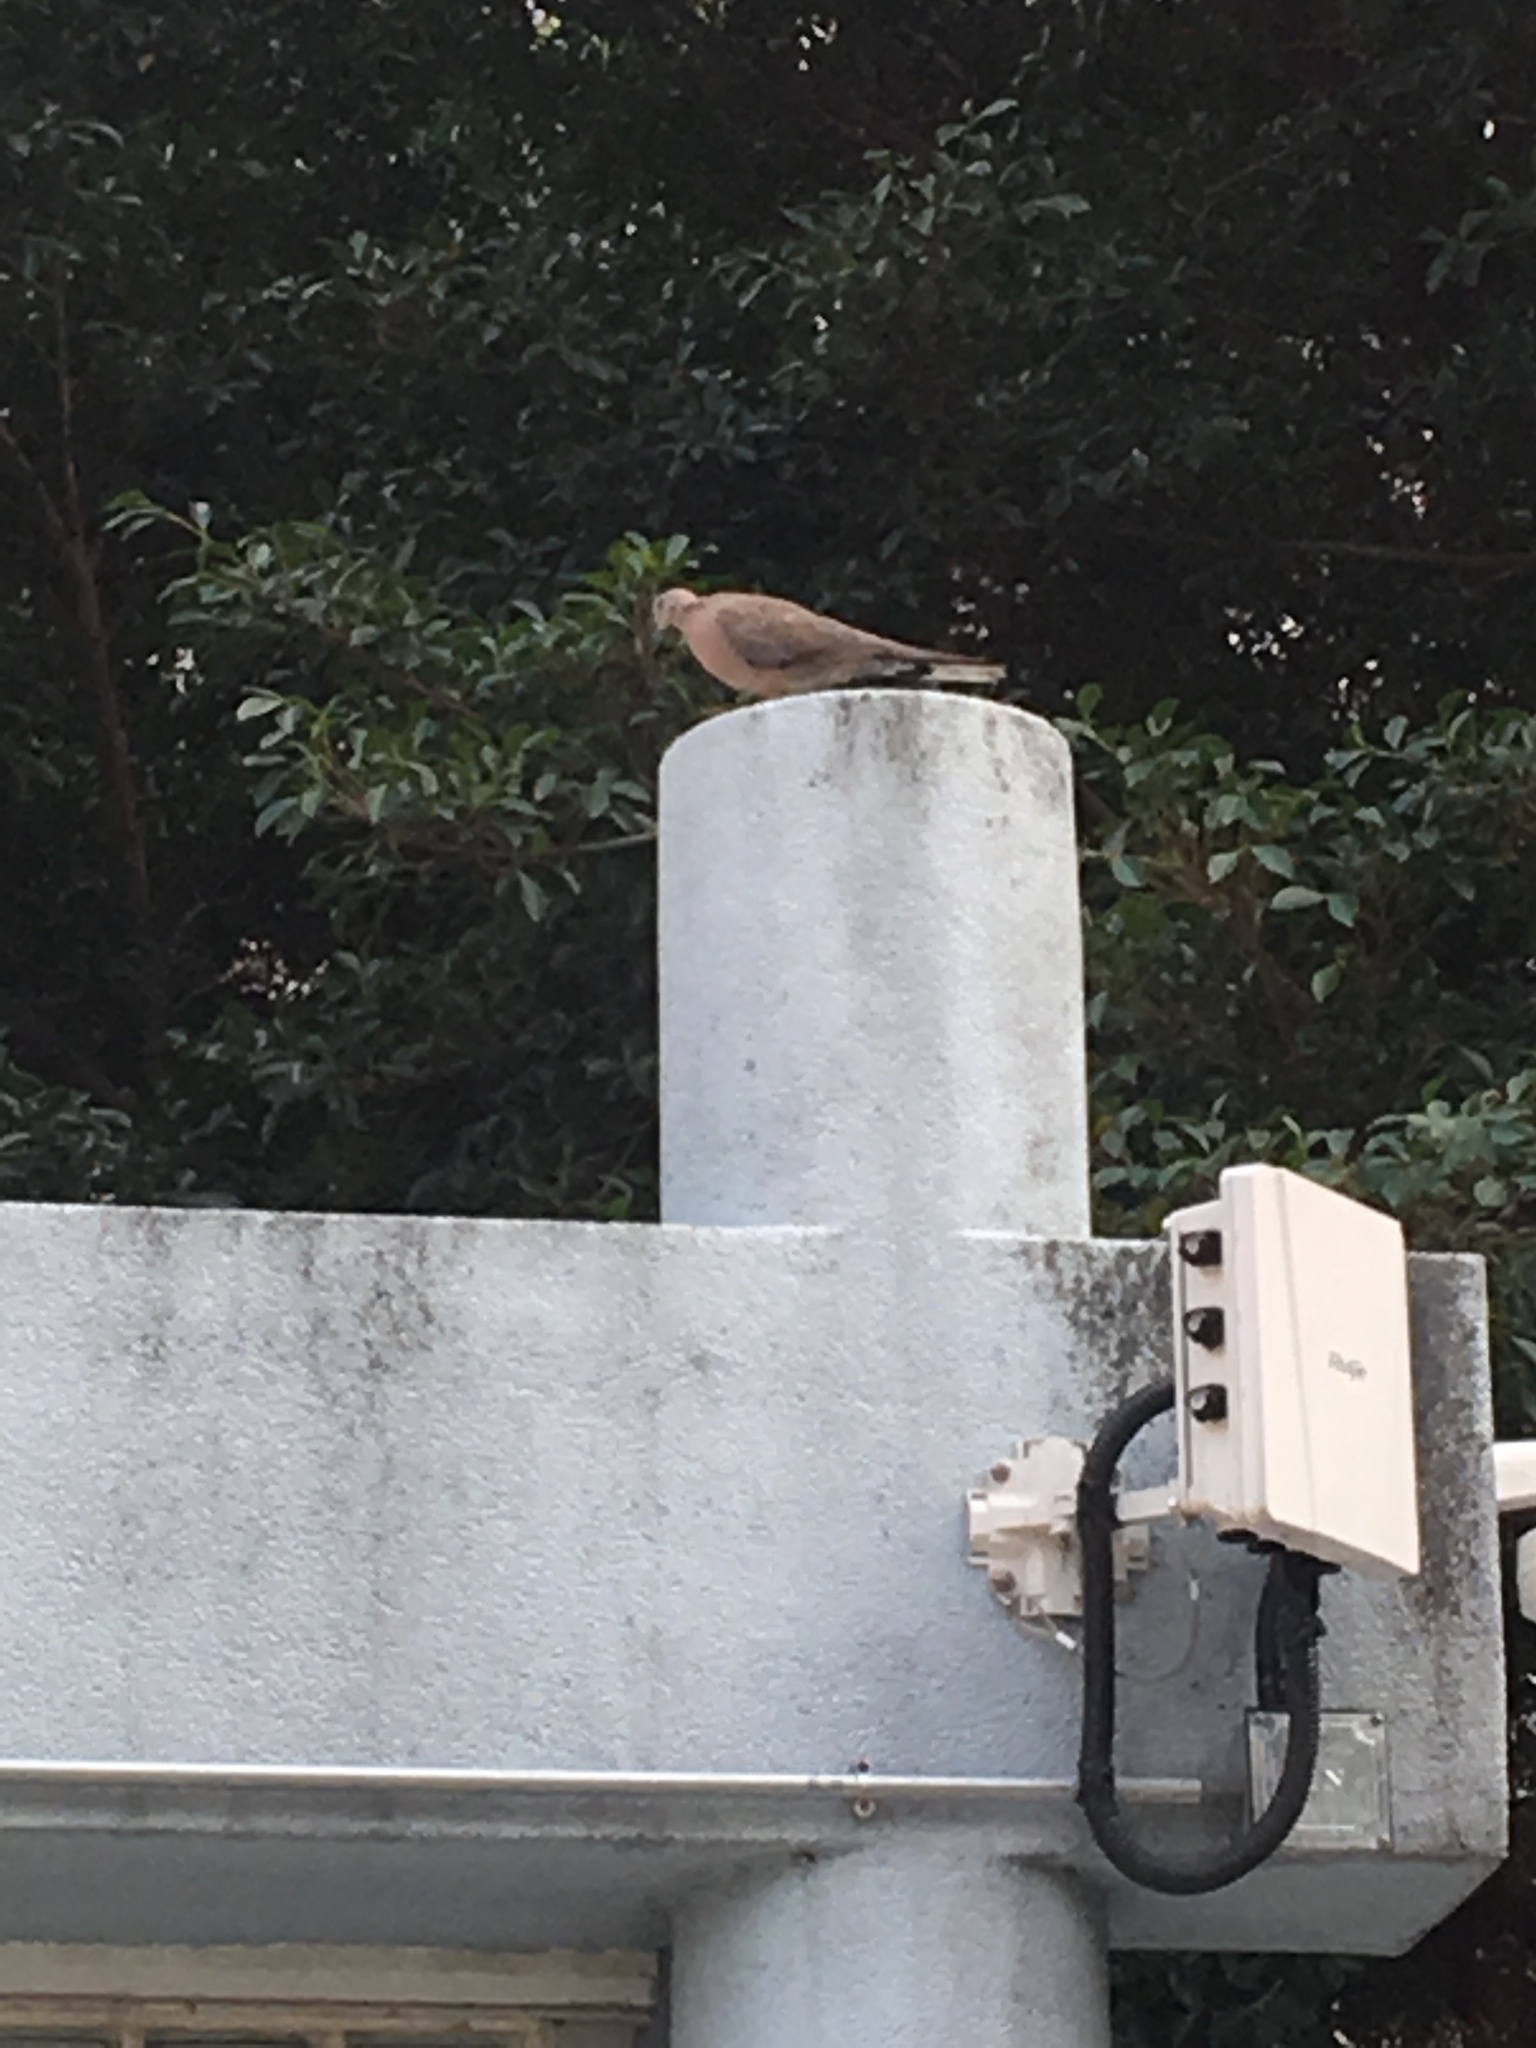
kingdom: Animalia
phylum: Chordata
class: Aves
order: Columbiformes
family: Columbidae
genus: Spilopelia
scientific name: Spilopelia chinensis
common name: Spotted dove
